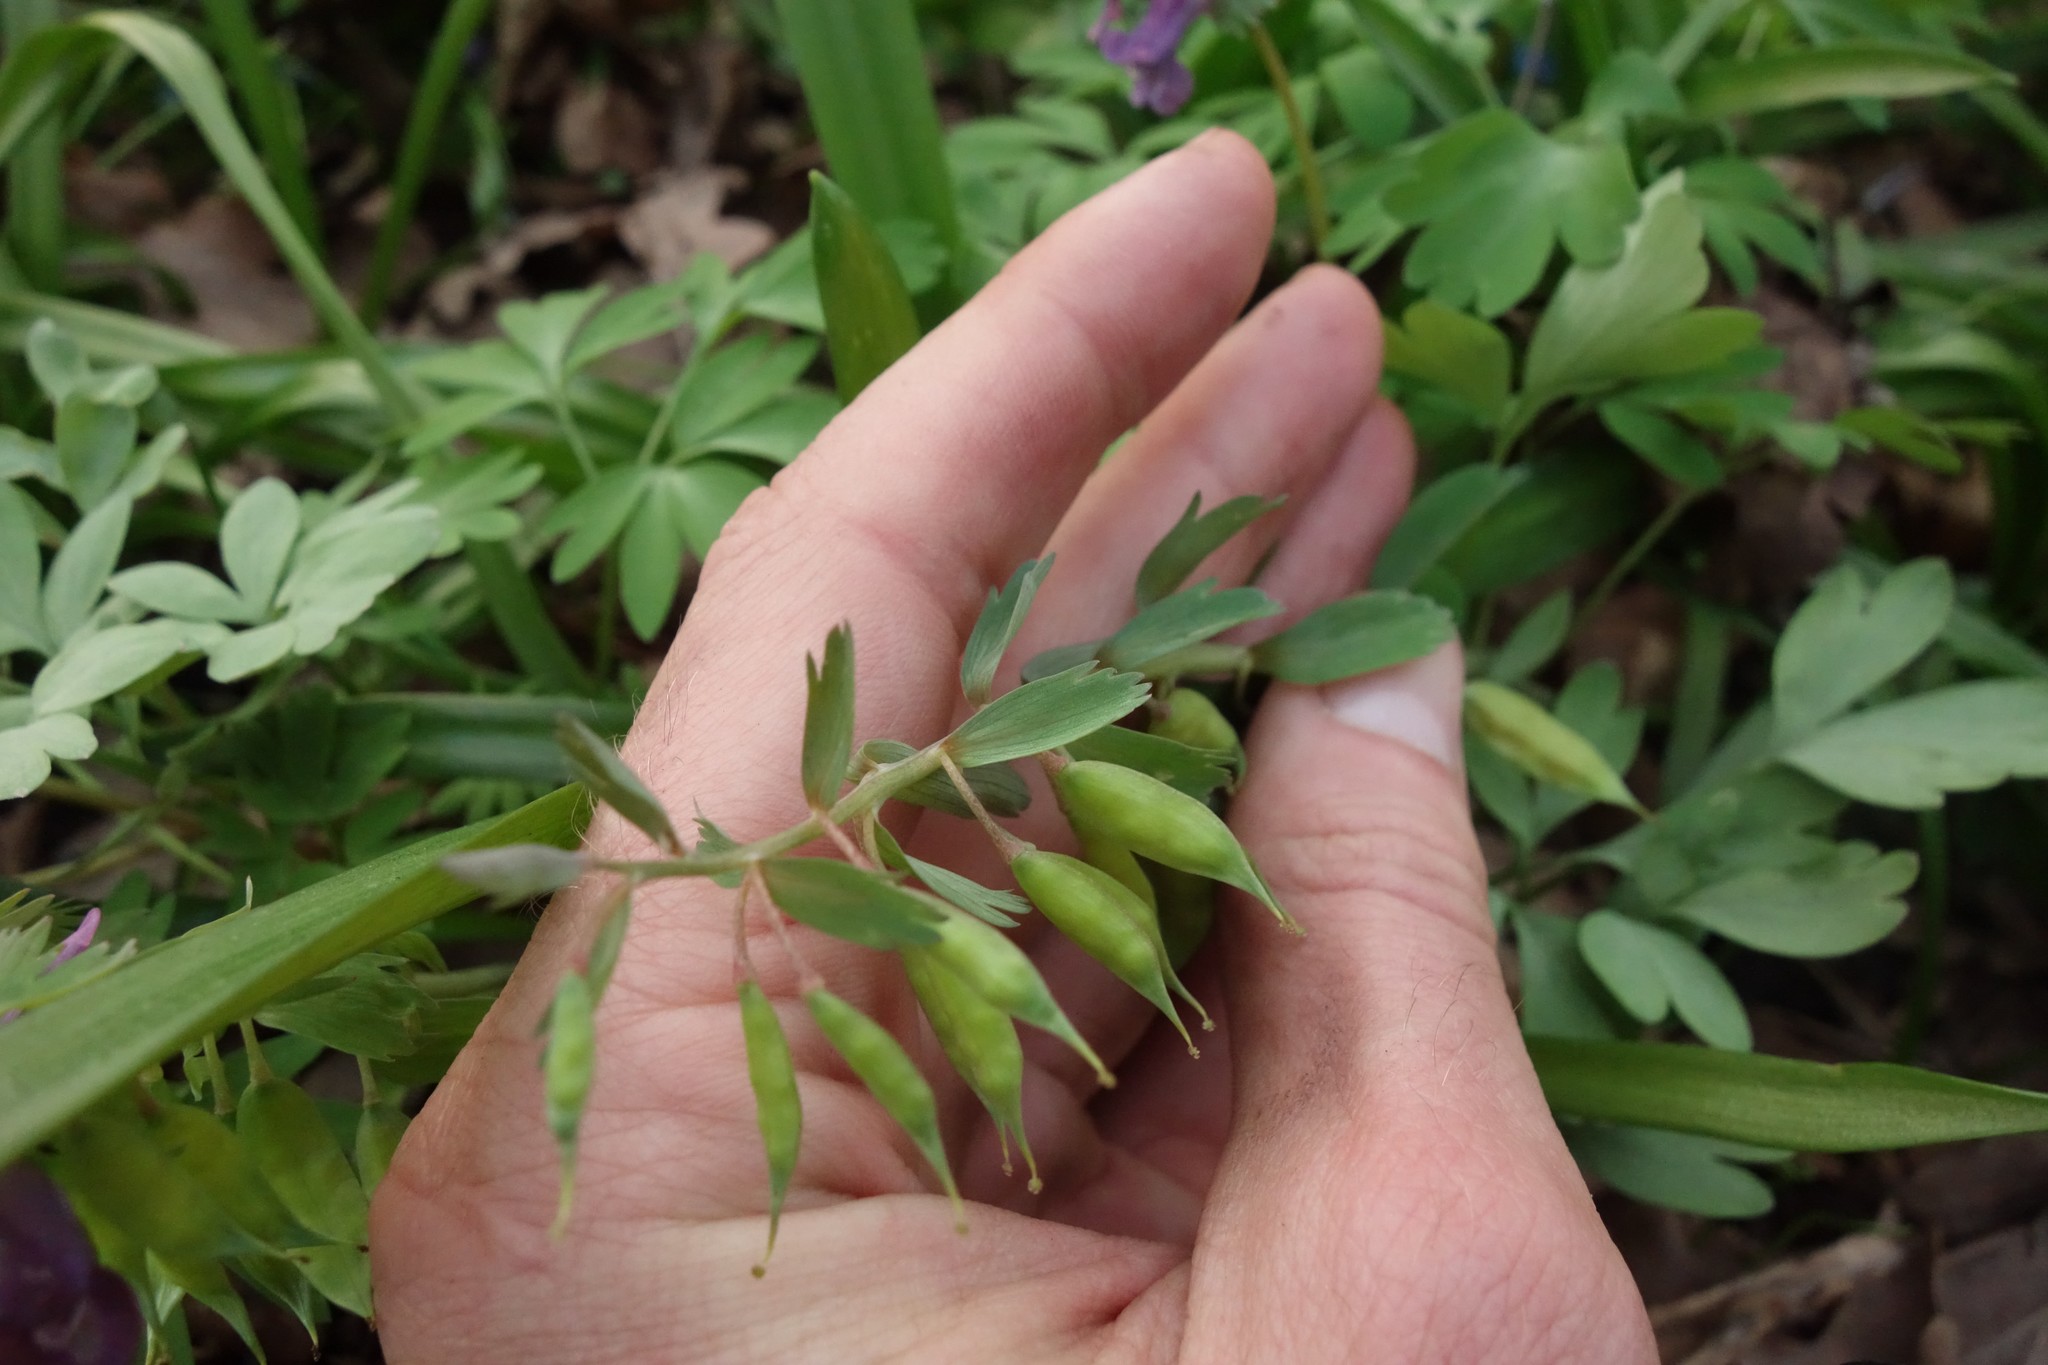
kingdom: Plantae
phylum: Tracheophyta
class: Magnoliopsida
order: Ranunculales
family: Papaveraceae
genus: Corydalis
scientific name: Corydalis solida
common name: Bird-in-a-bush
